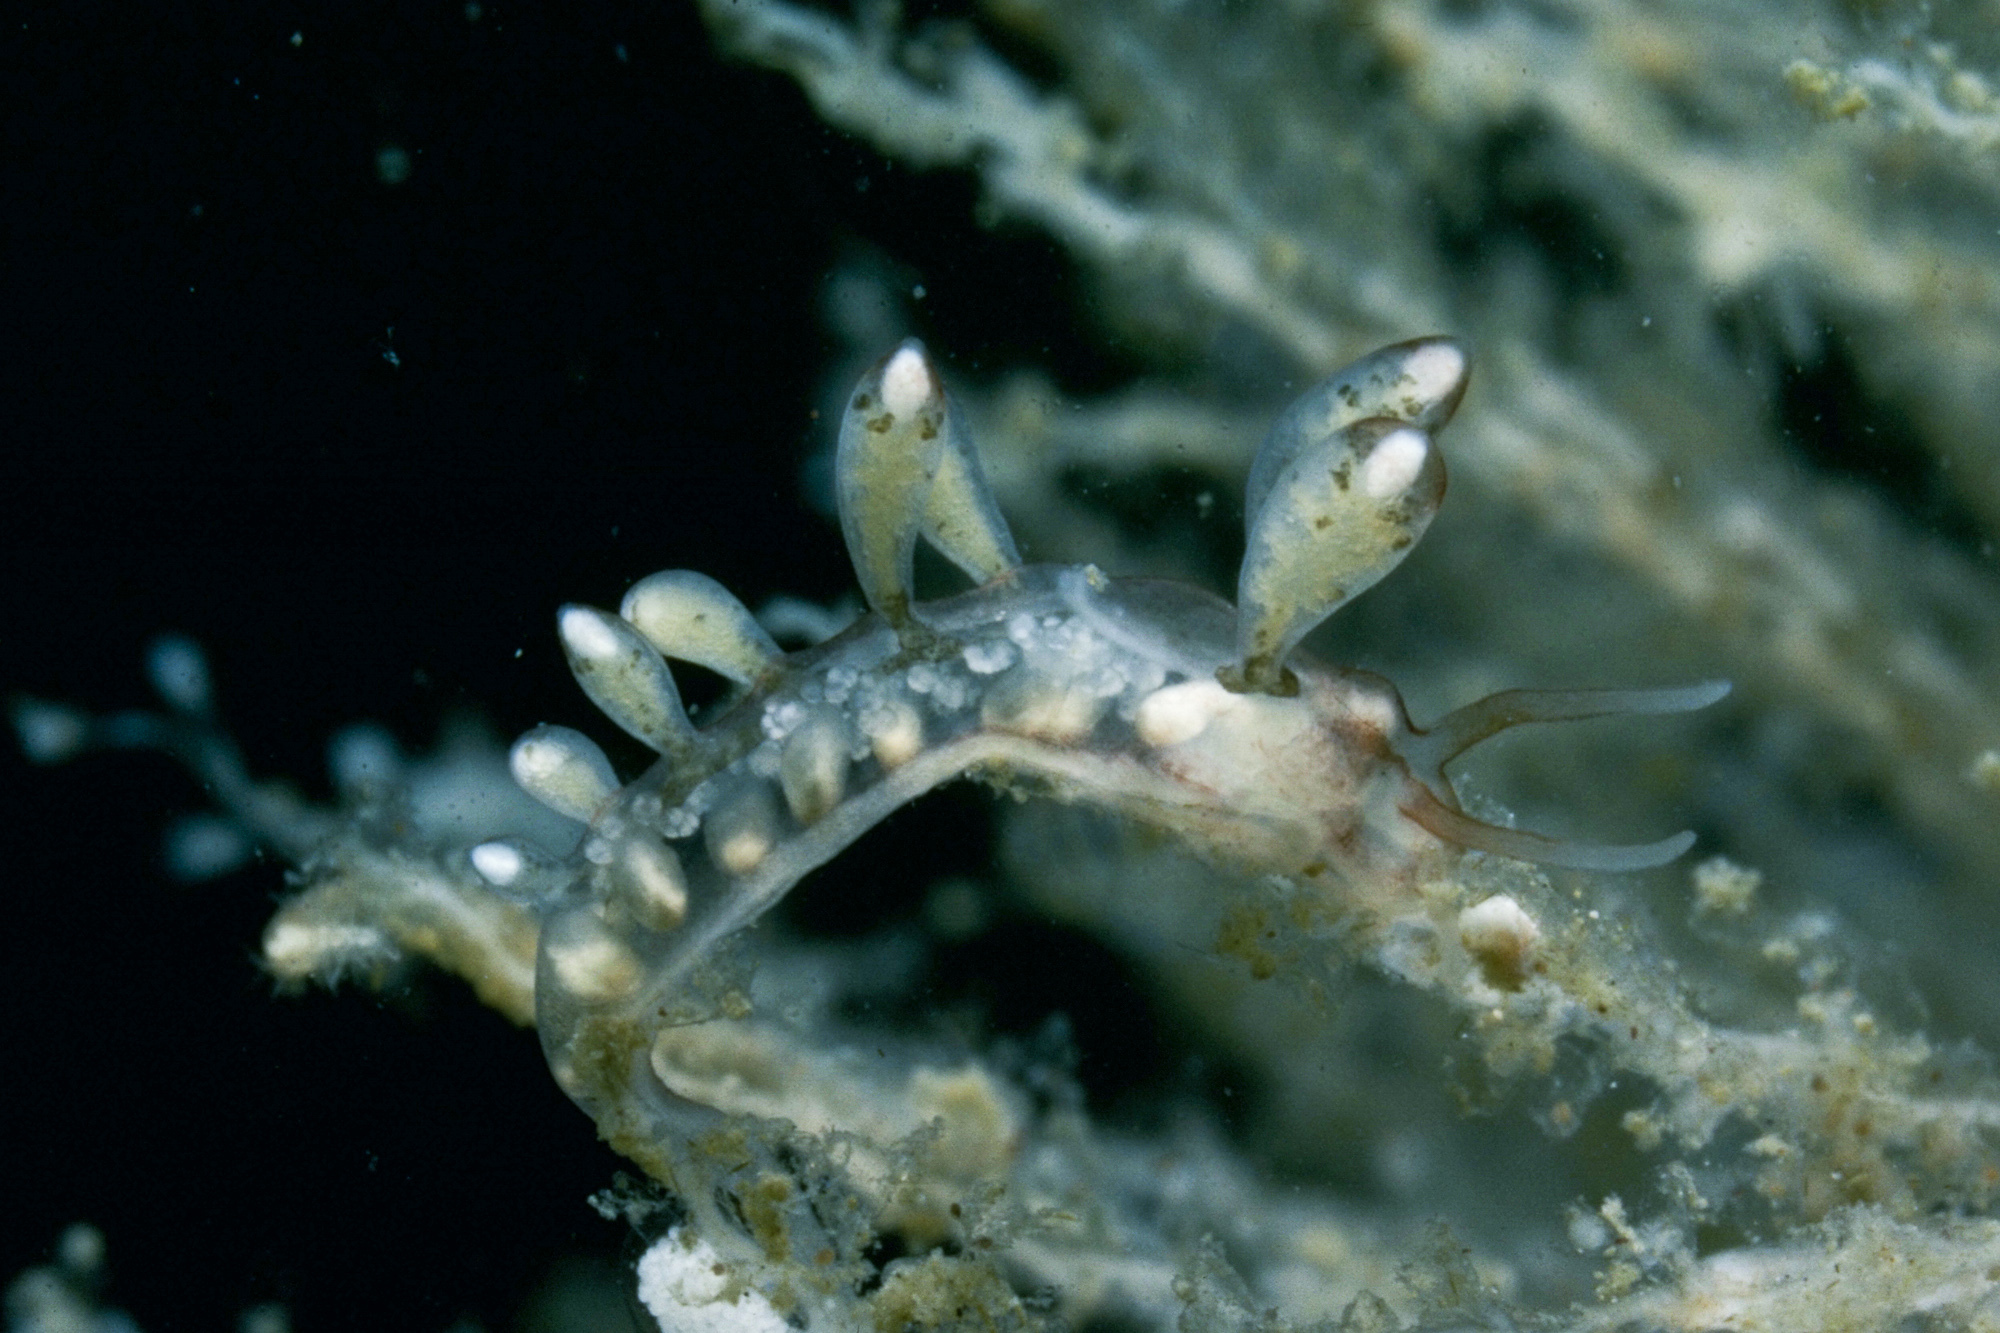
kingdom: Animalia
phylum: Mollusca
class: Gastropoda
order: Nudibranchia
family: Tergipedidae
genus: Tergipes
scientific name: Tergipes tergipes
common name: Johnston's balloon eolis
